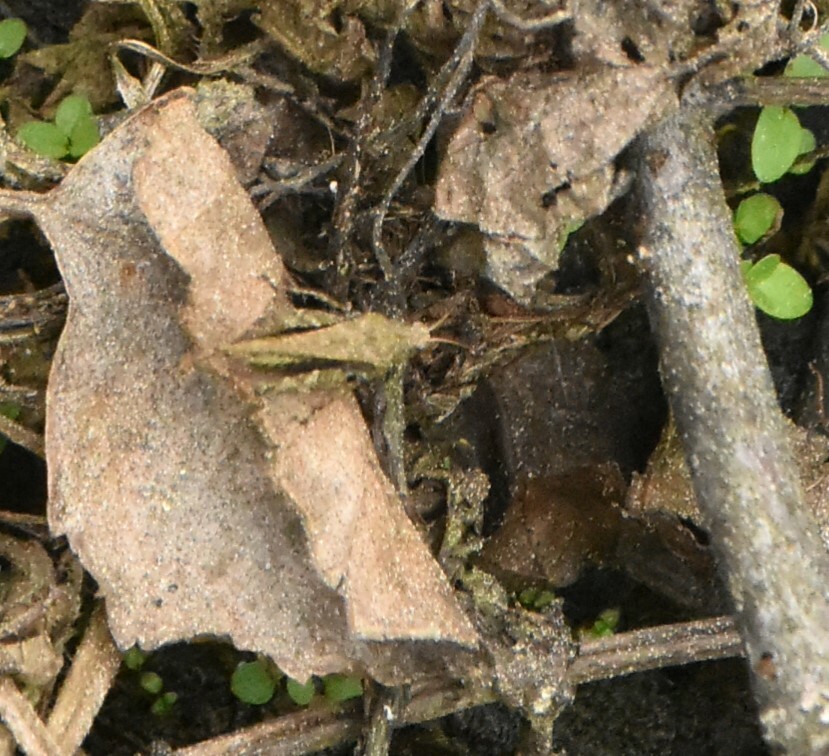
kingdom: Animalia
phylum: Arthropoda
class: Insecta
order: Orthoptera
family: Tetrigidae
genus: Tetrix
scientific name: Tetrix subulata
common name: Slender ground-hopper
